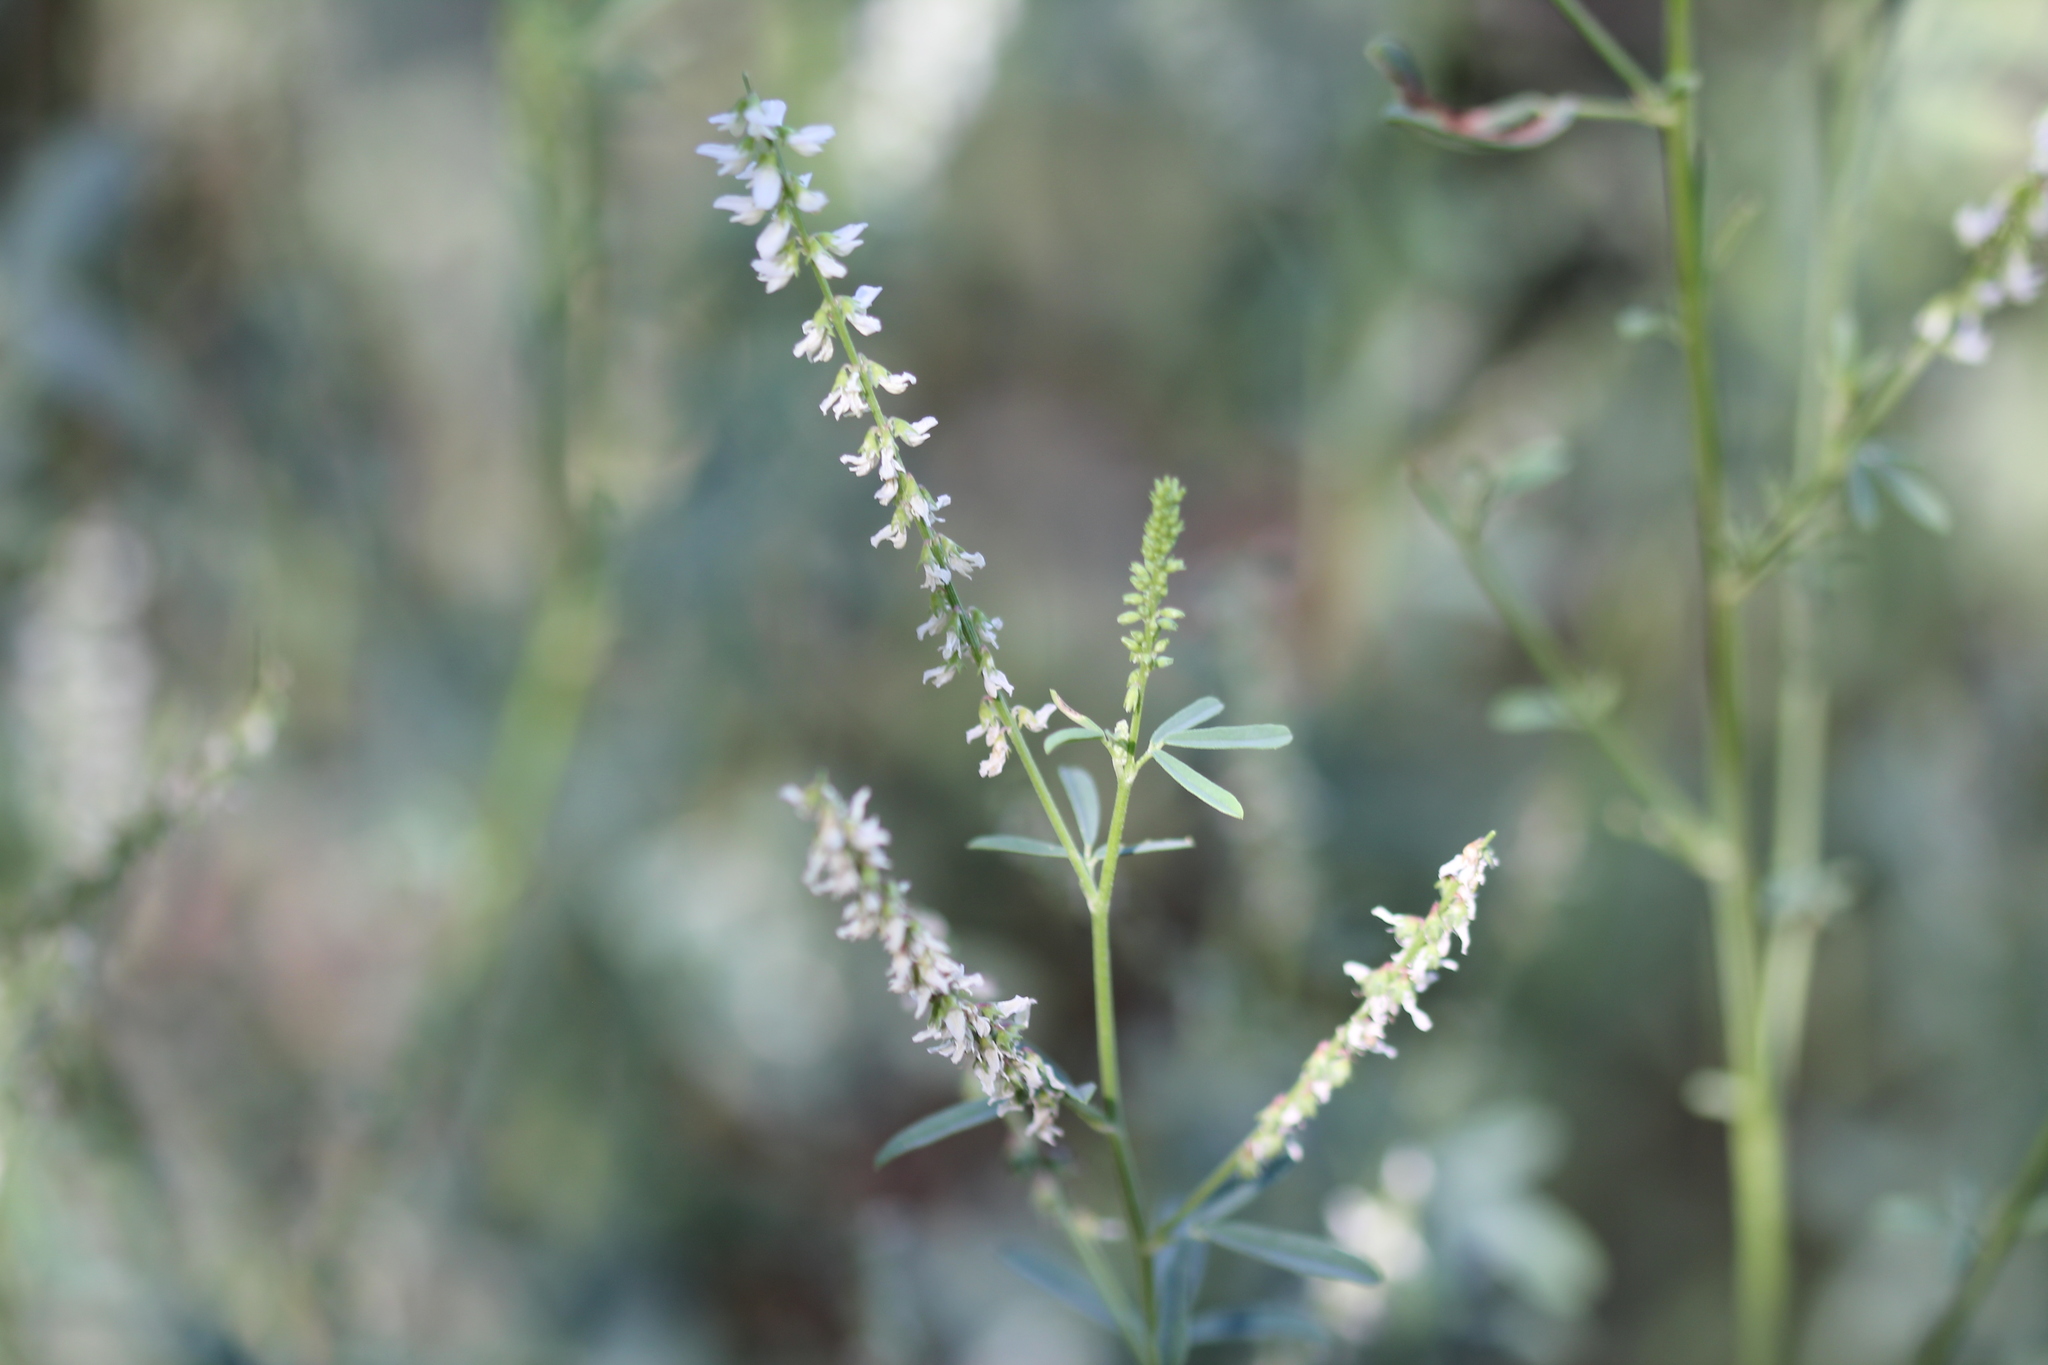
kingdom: Plantae
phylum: Tracheophyta
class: Magnoliopsida
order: Fabales
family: Fabaceae
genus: Melilotus
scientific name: Melilotus albus
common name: White melilot
